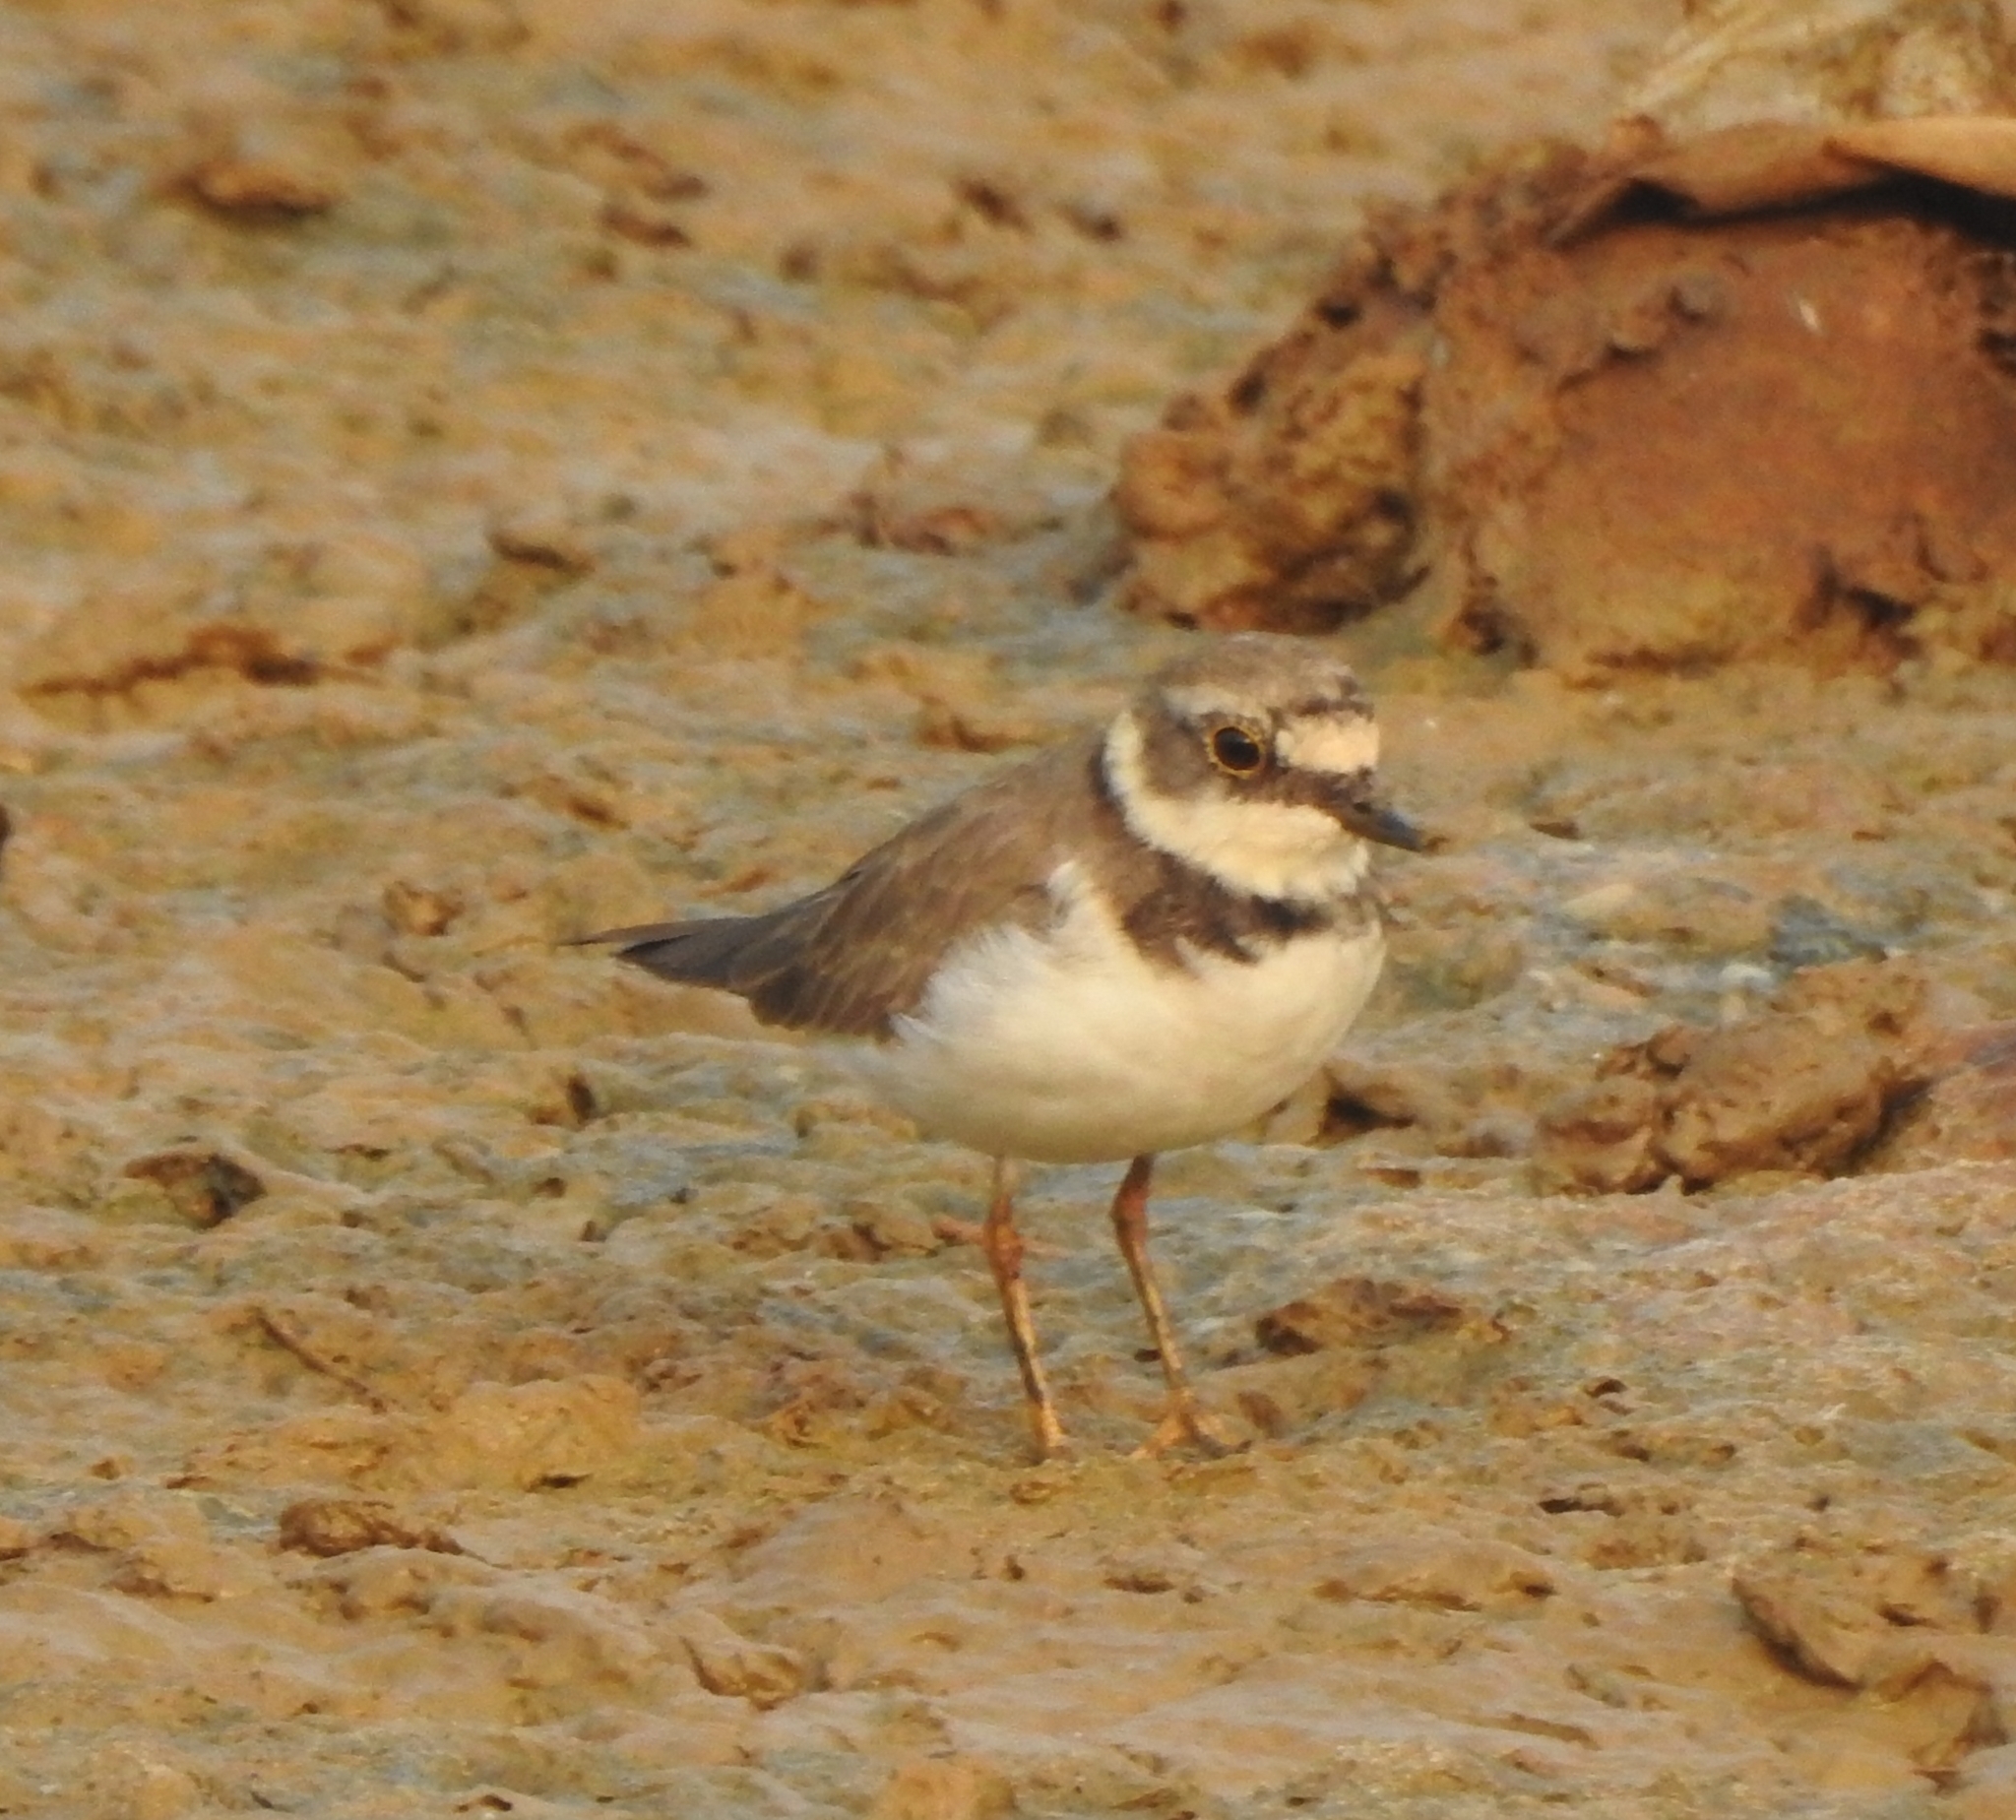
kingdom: Animalia
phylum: Chordata
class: Aves
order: Charadriiformes
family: Charadriidae
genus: Charadrius
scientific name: Charadrius dubius
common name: Little ringed plover
